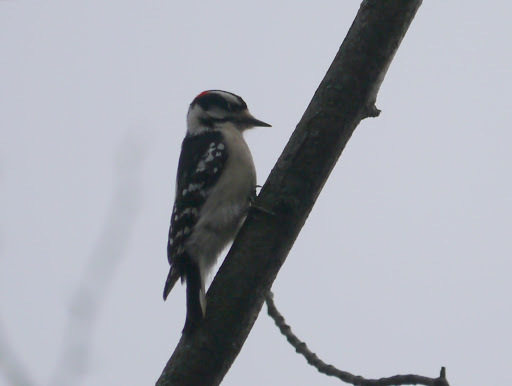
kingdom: Animalia
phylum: Chordata
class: Aves
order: Piciformes
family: Picidae
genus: Dryobates
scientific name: Dryobates pubescens
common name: Downy woodpecker
